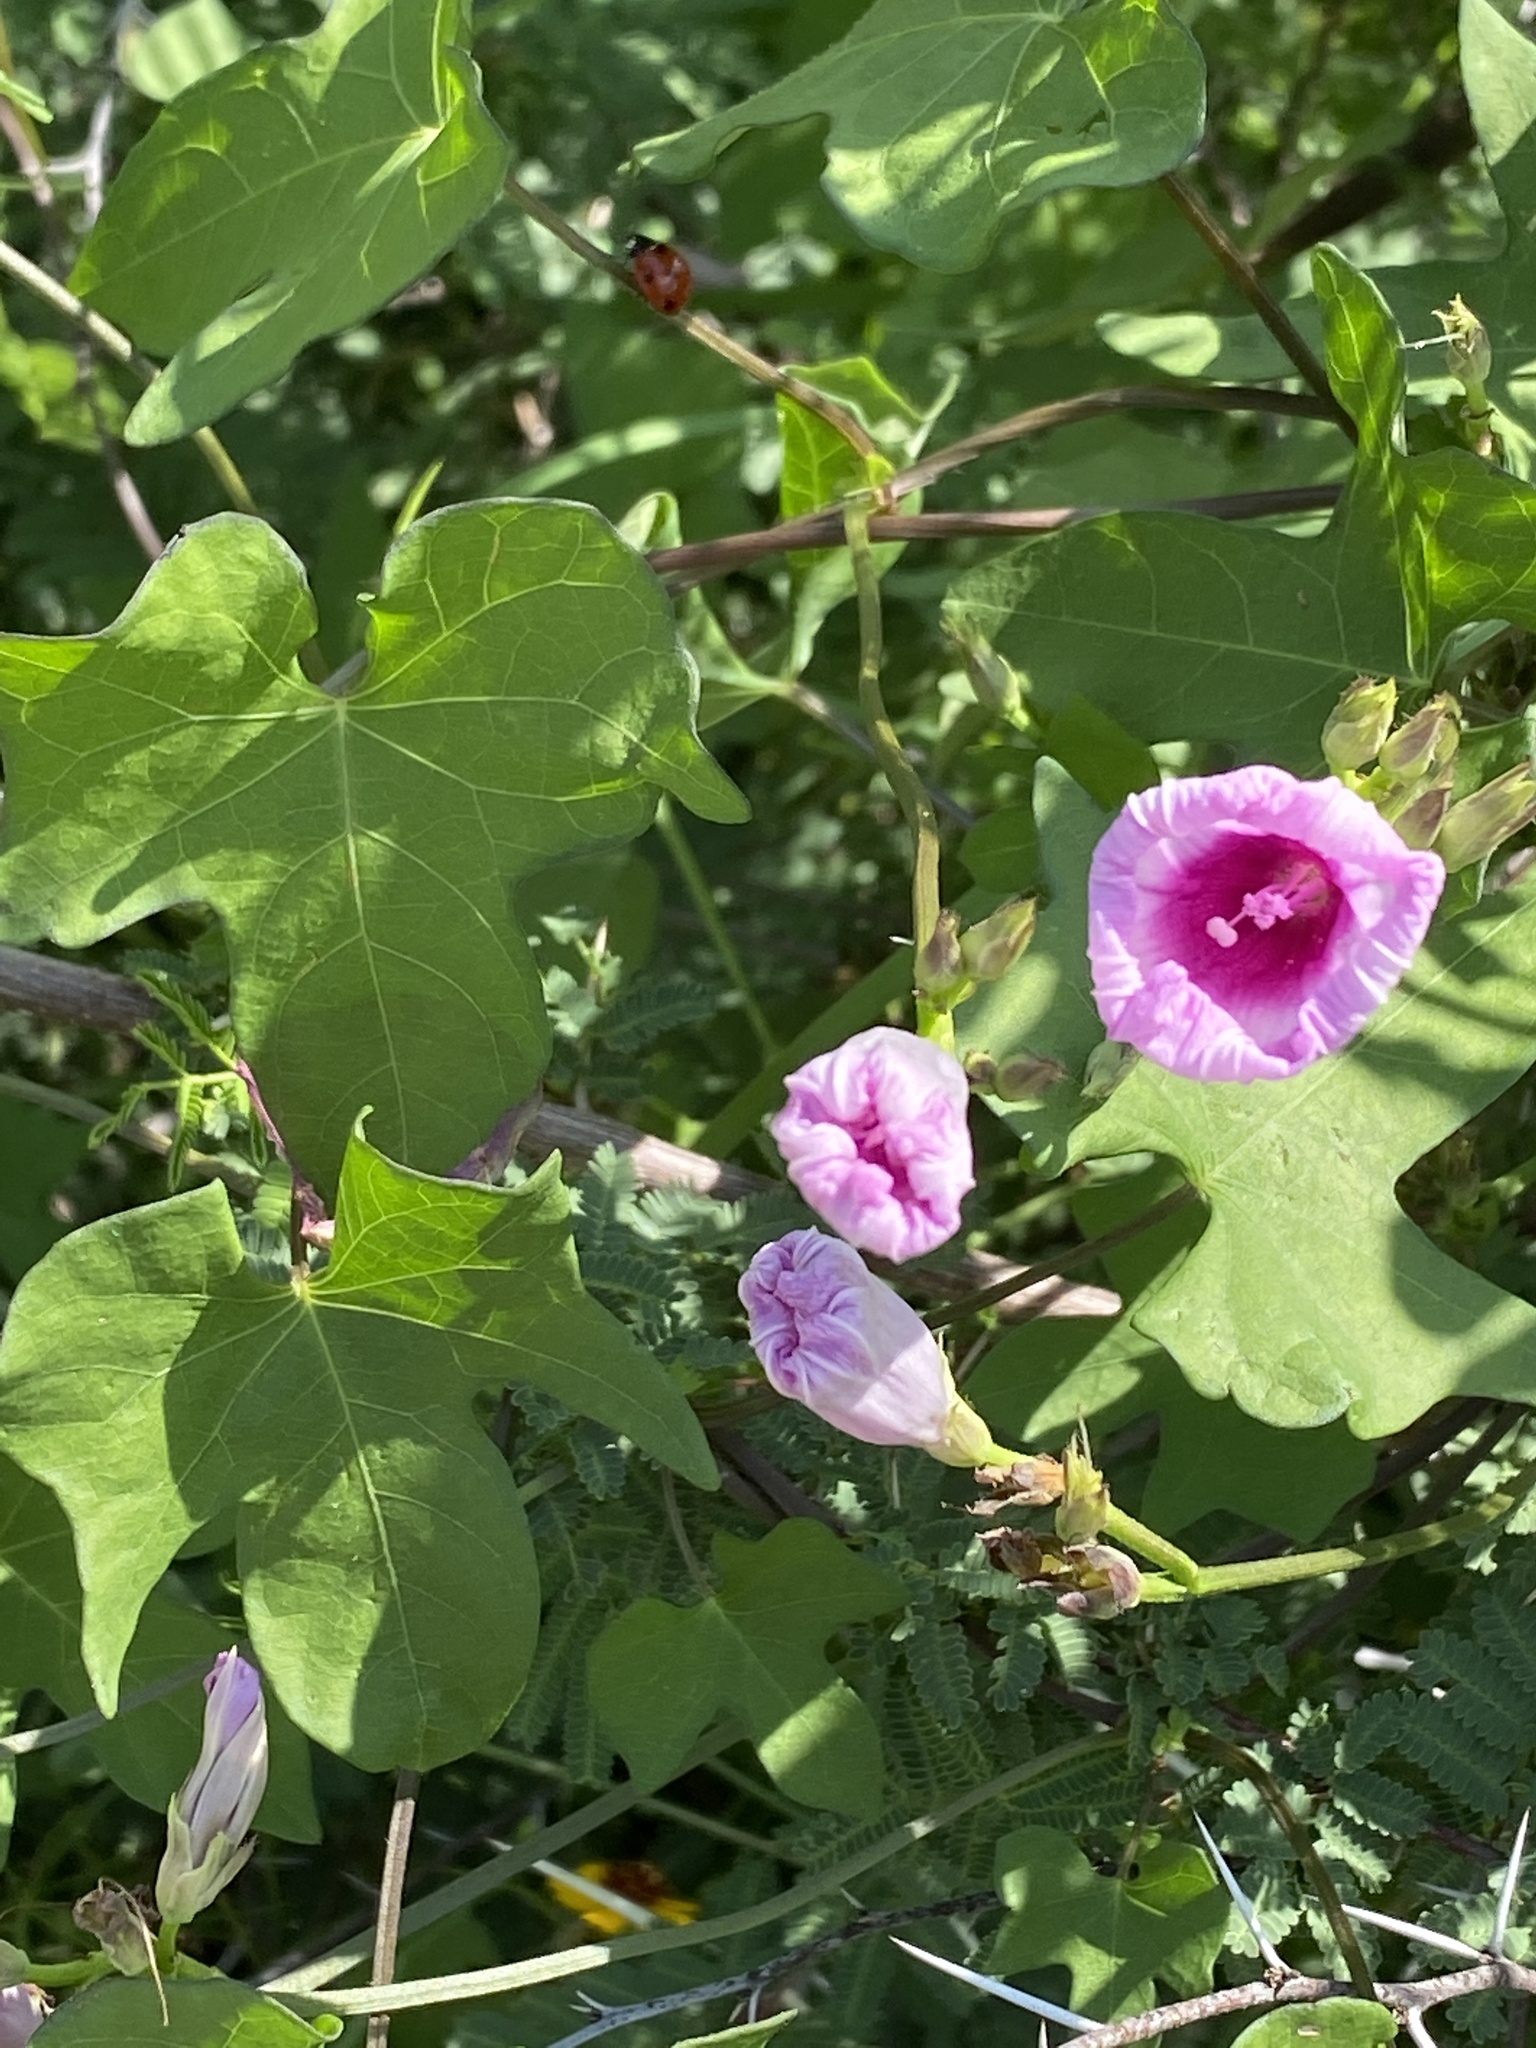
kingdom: Plantae
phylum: Tracheophyta
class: Magnoliopsida
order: Solanales
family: Convolvulaceae
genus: Ipomoea
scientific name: Ipomoea cordatotriloba
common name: Cotton morning glory
